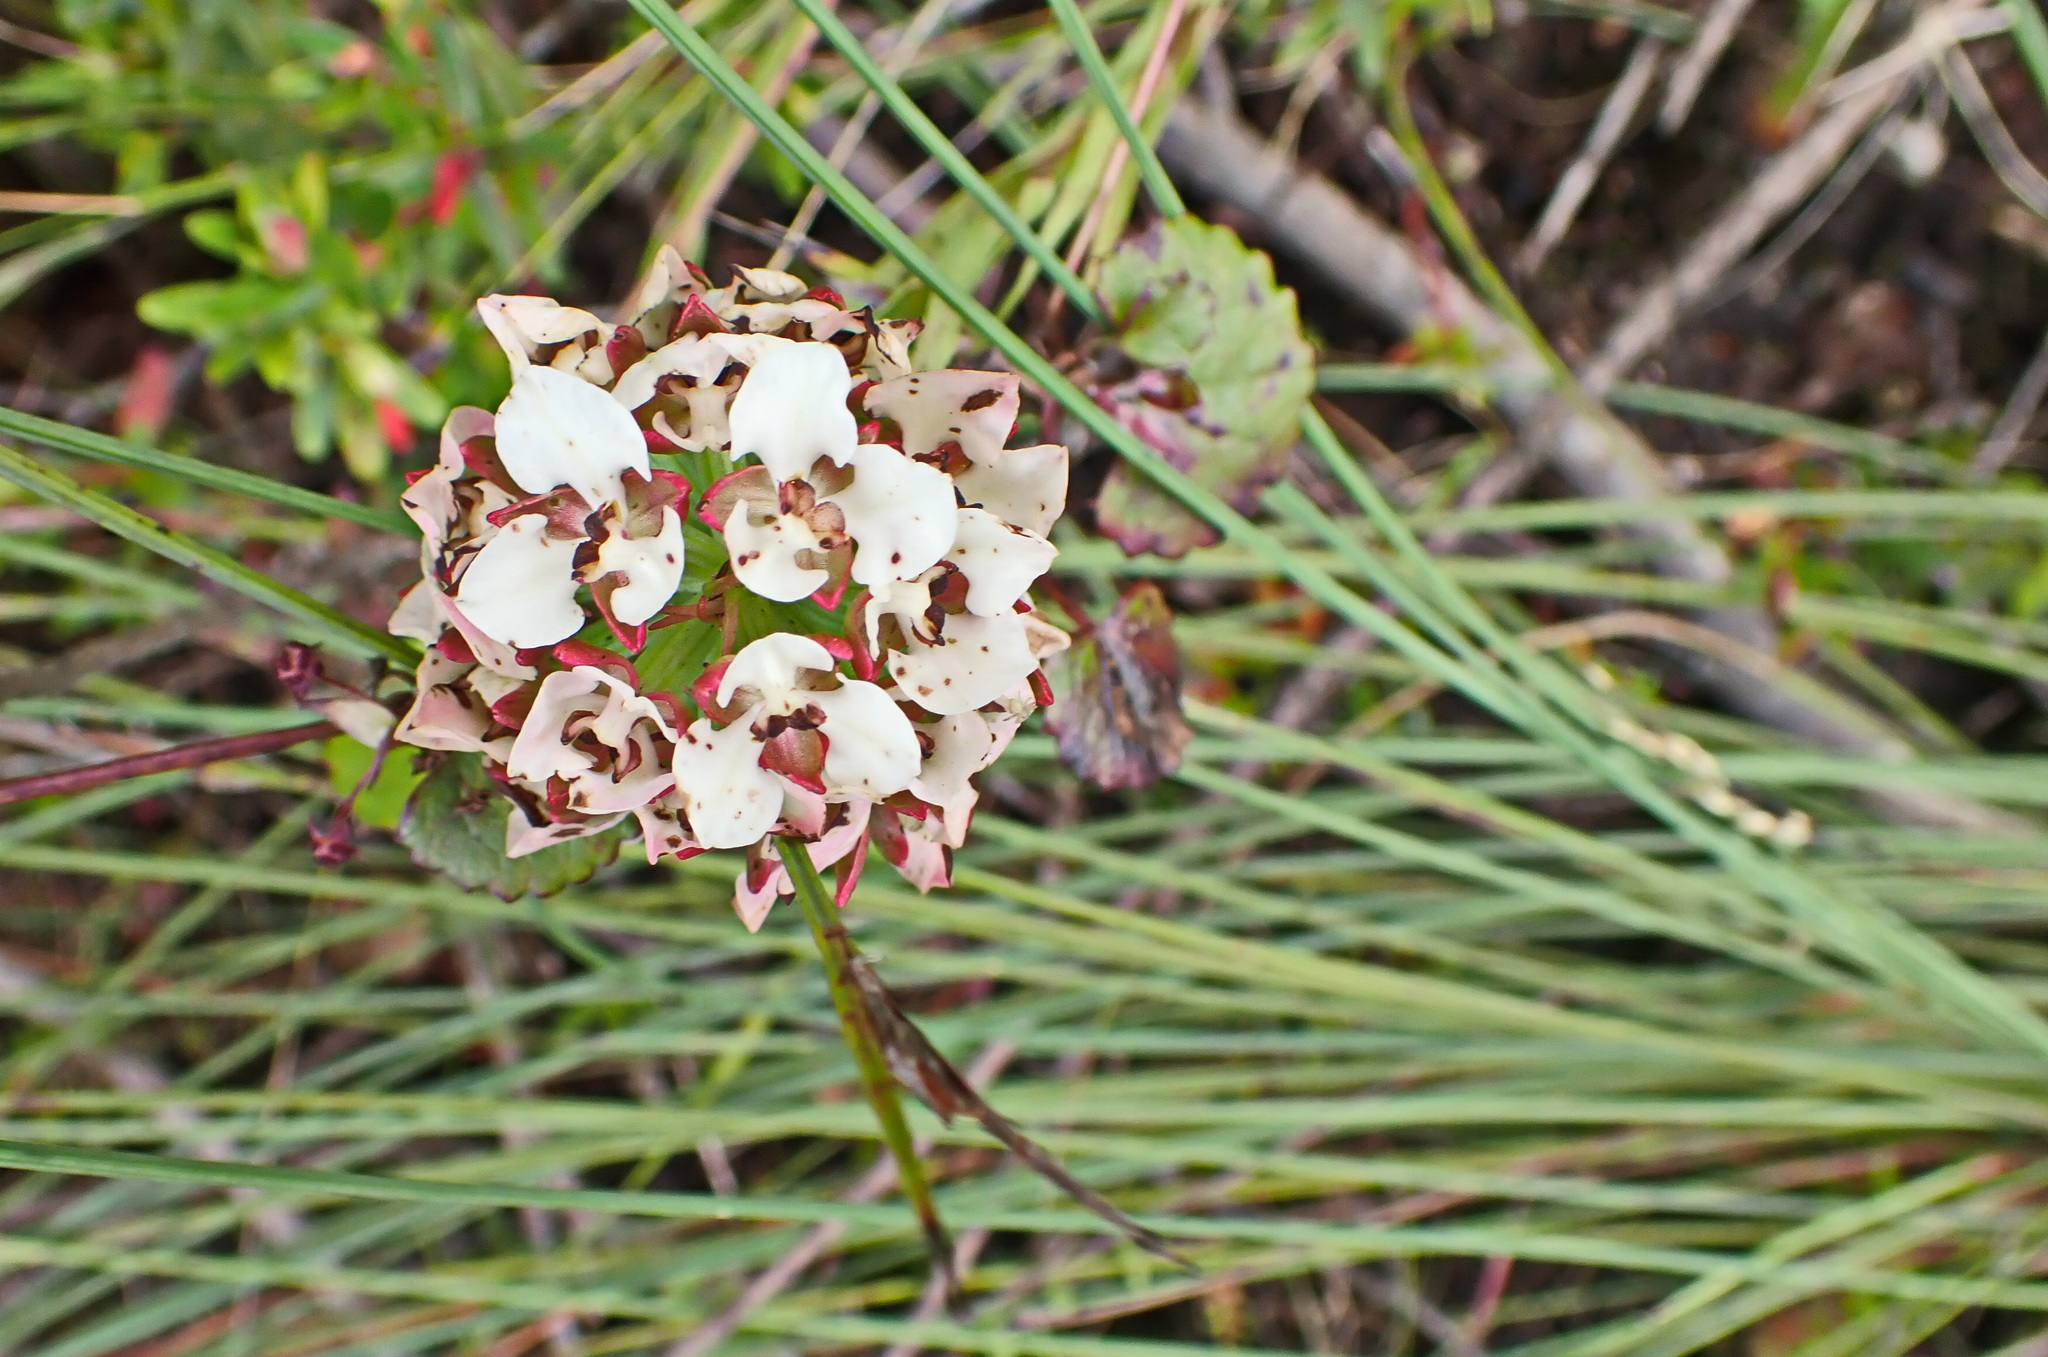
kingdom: Plantae
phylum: Tracheophyta
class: Liliopsida
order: Asparagales
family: Orchidaceae
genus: Ceratandra
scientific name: Ceratandra globosa
